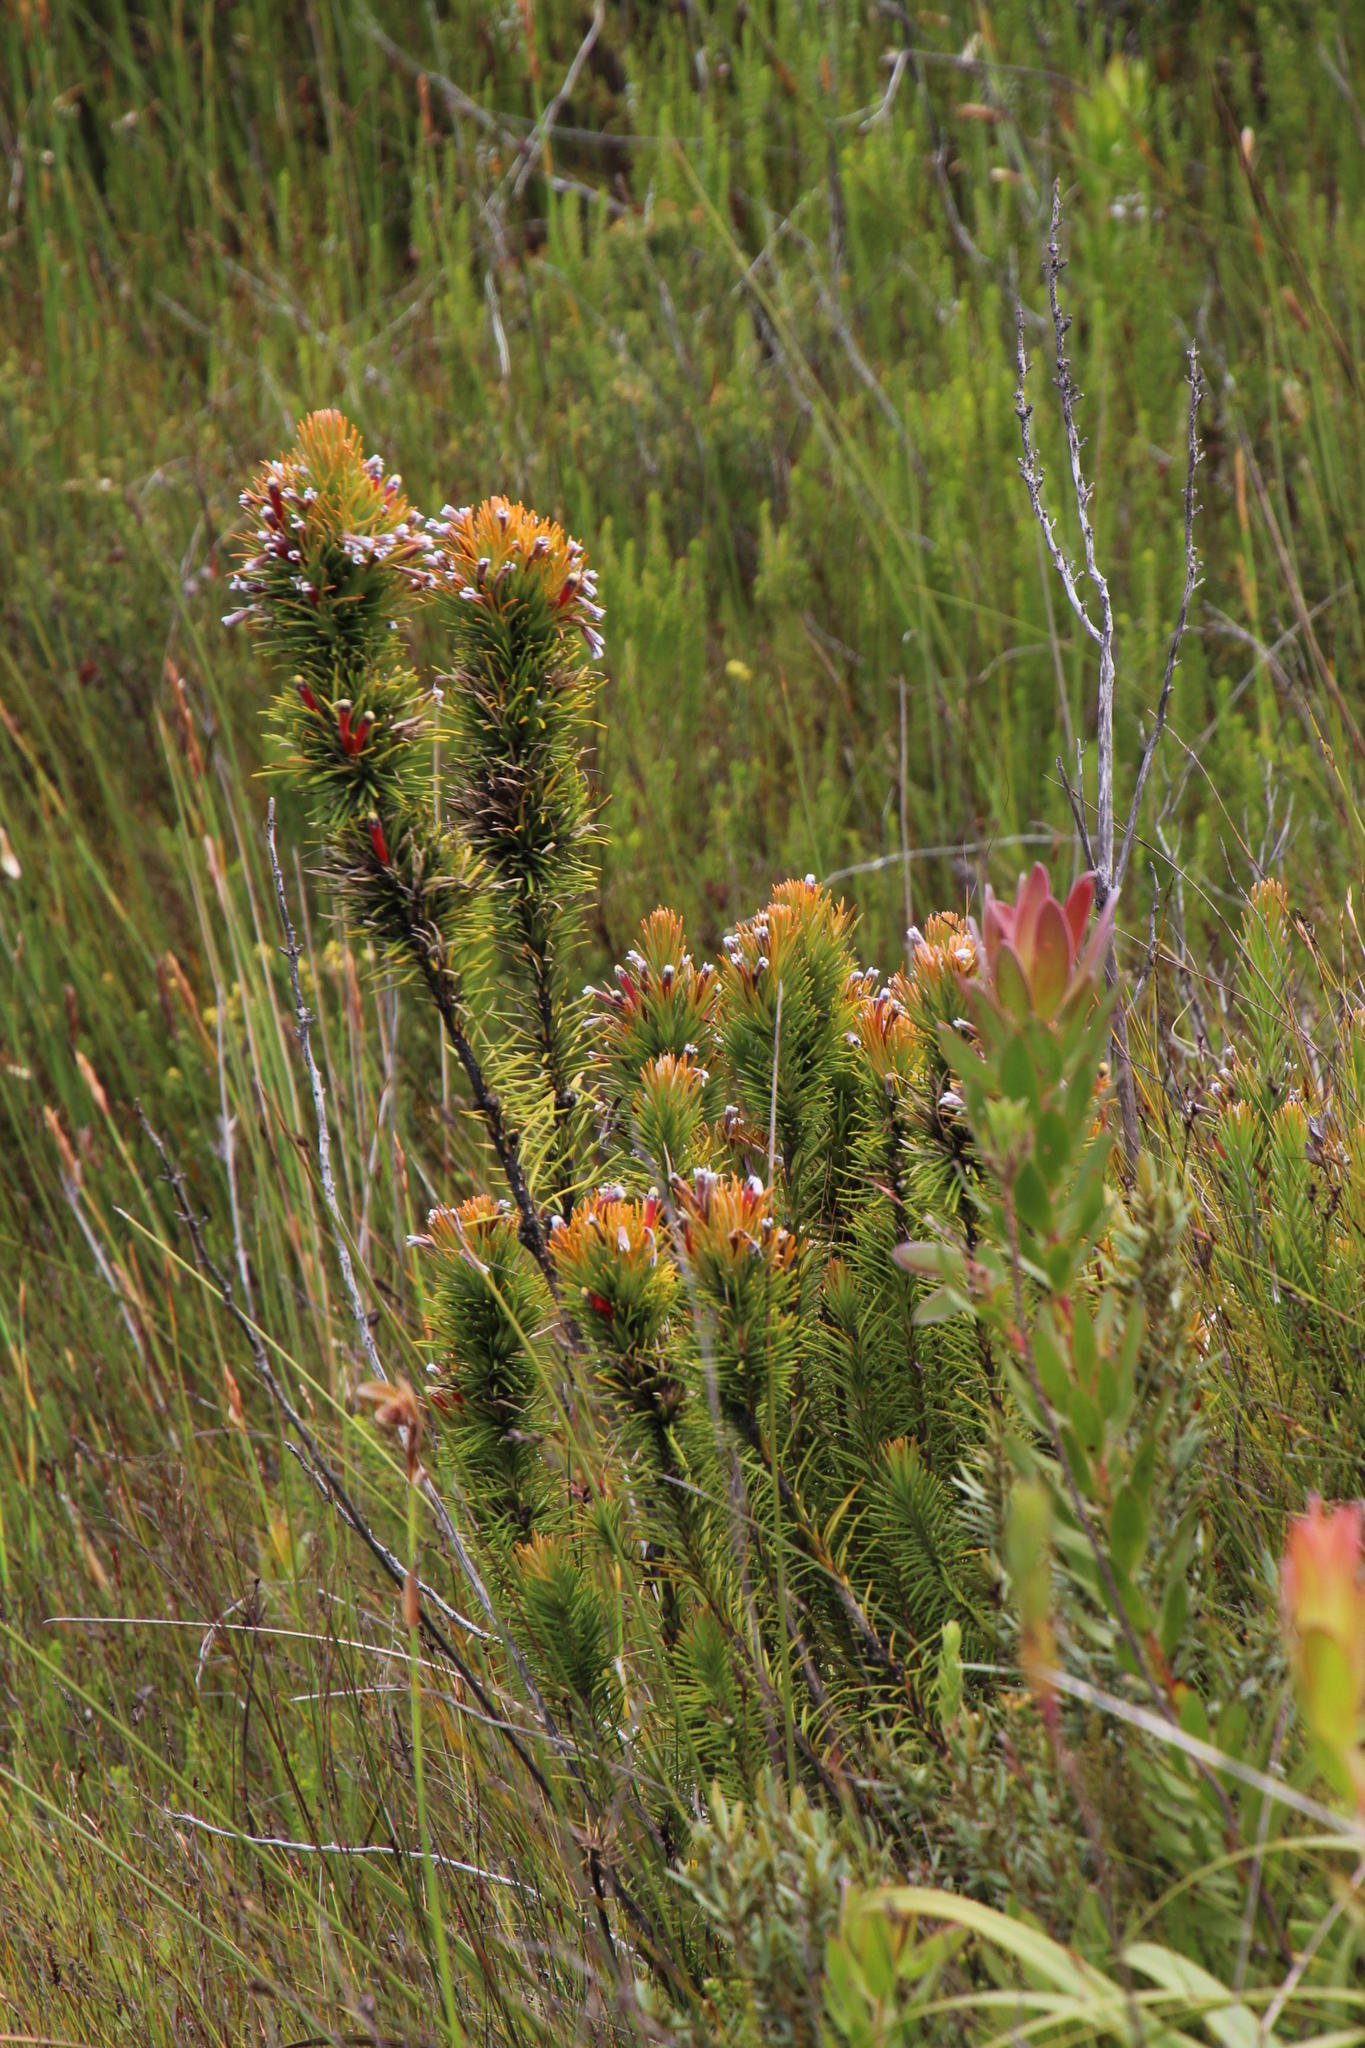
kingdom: Plantae
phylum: Tracheophyta
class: Magnoliopsida
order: Lamiales
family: Stilbaceae
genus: Retzia
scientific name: Retzia capensis
